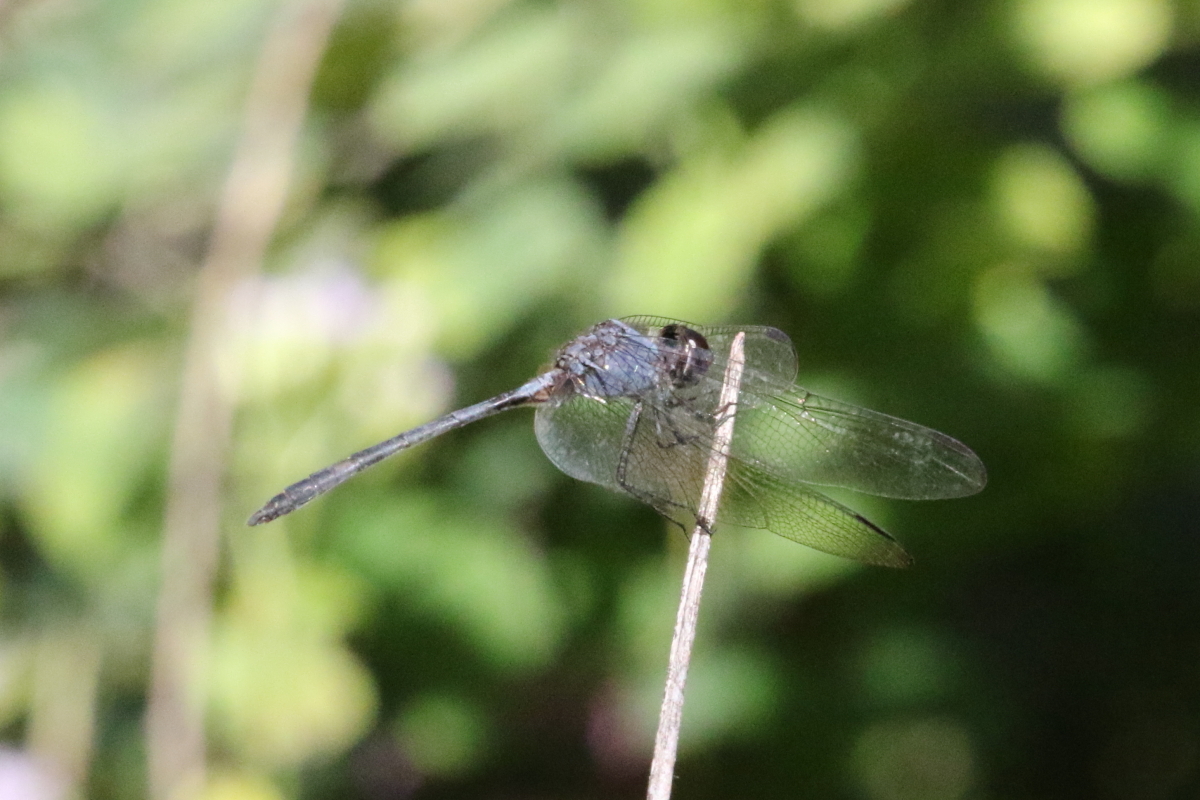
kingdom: Animalia
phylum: Arthropoda
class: Insecta
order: Odonata
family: Libellulidae
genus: Dythemis
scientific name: Dythemis nigrescens
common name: Black setwing
